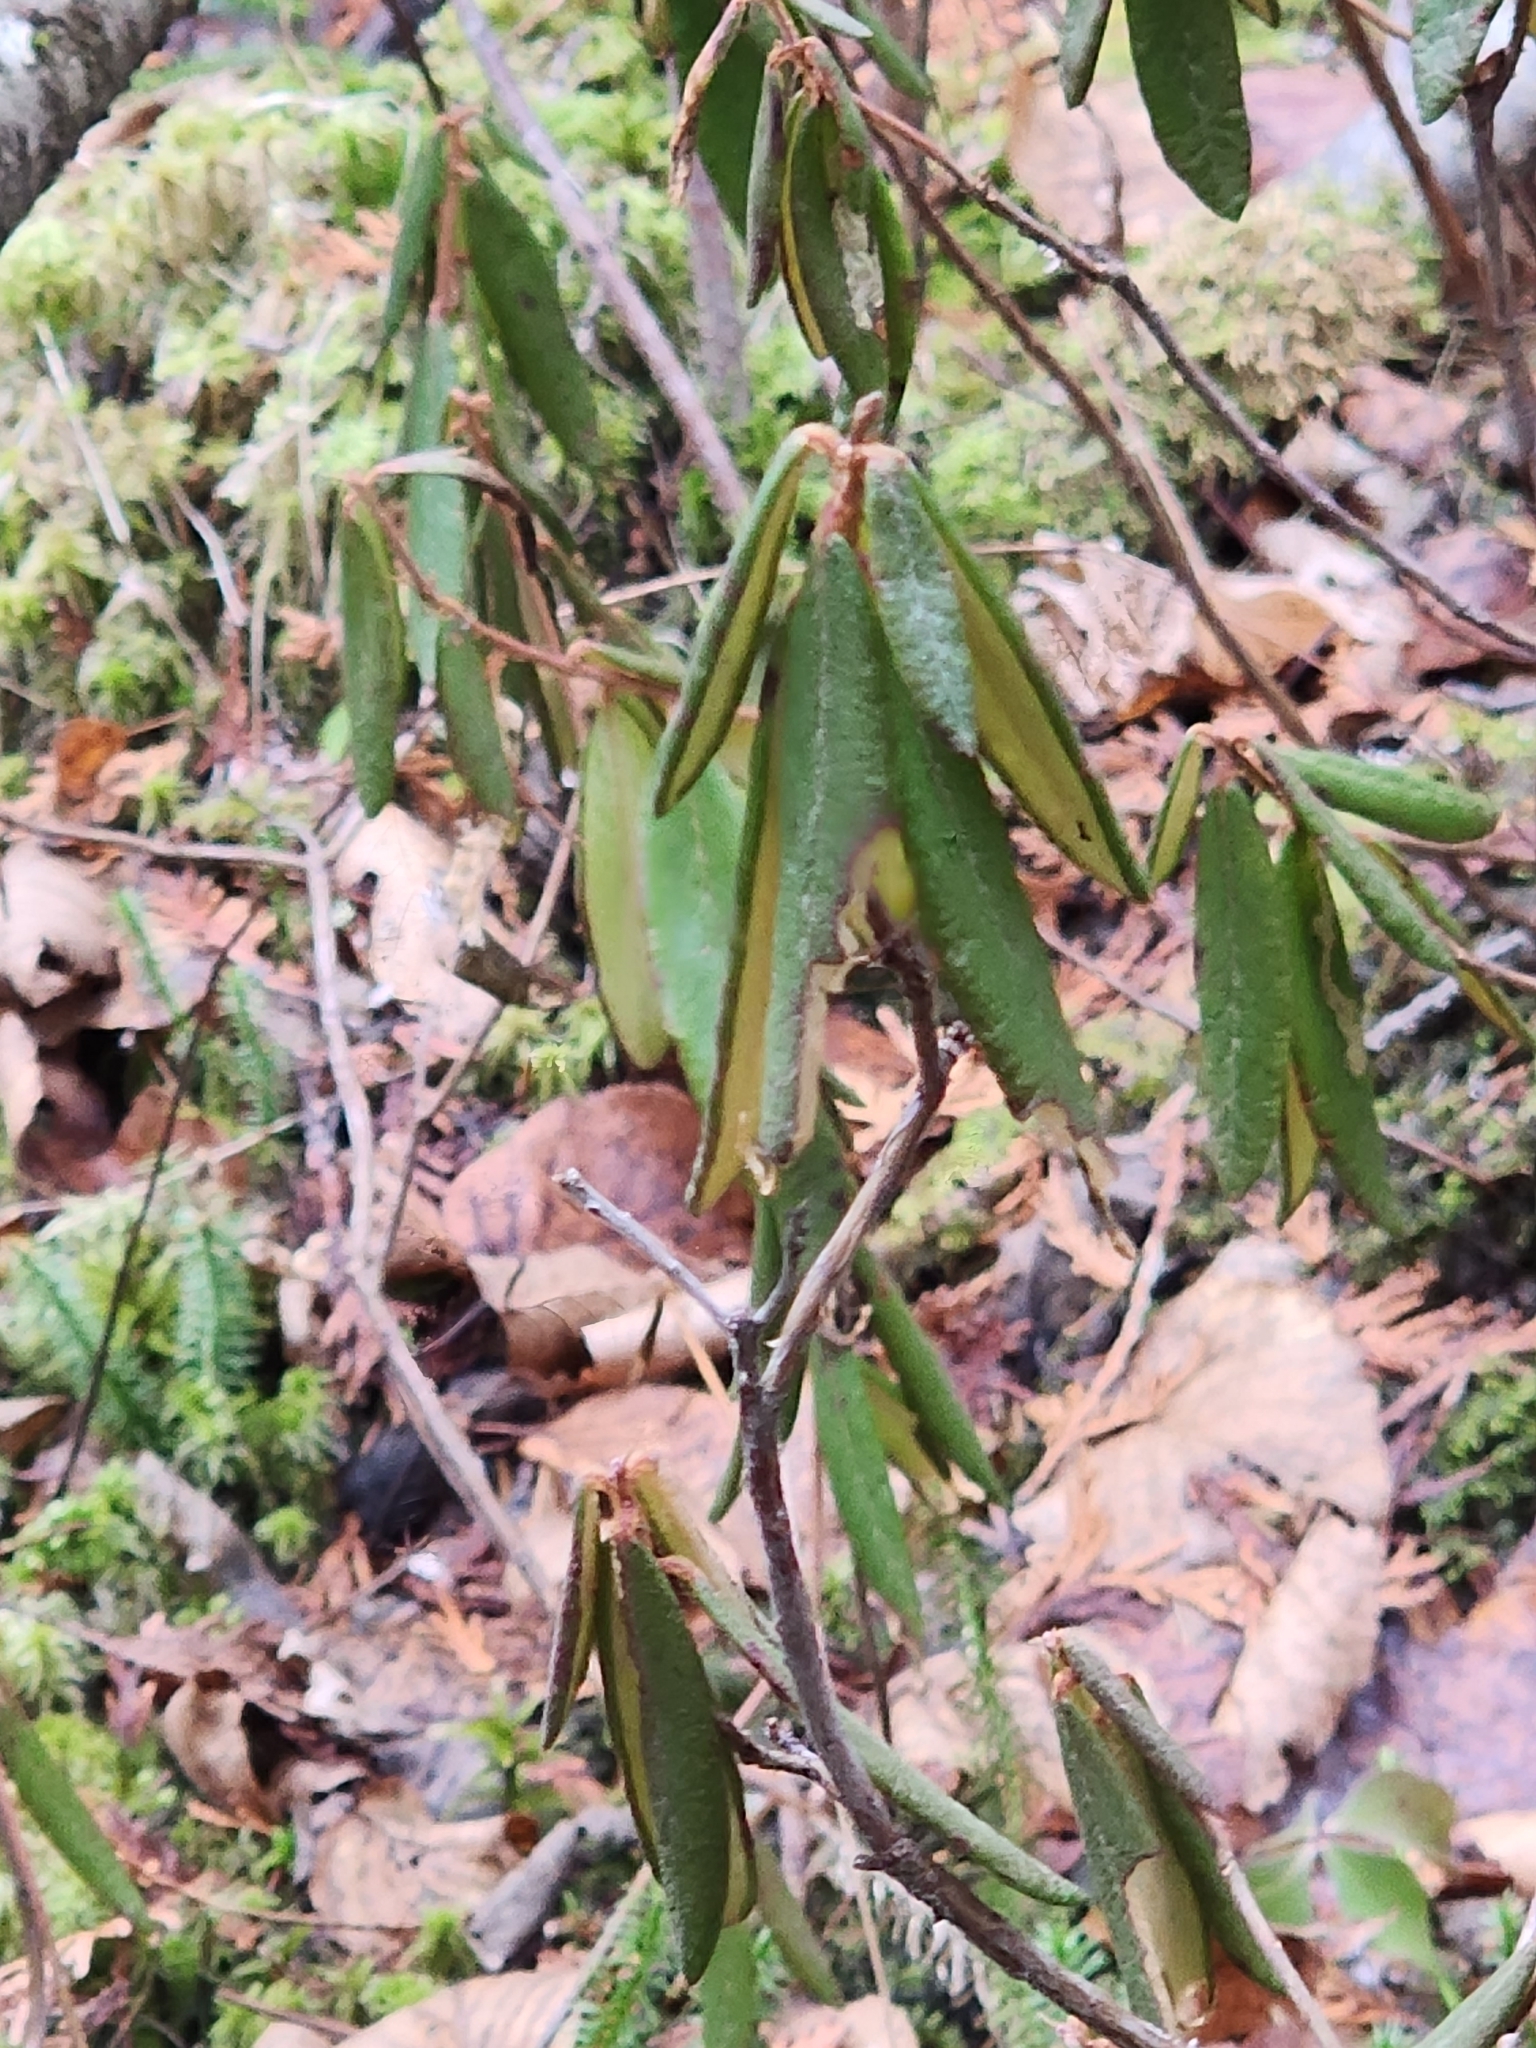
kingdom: Plantae
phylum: Tracheophyta
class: Magnoliopsida
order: Ericales
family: Ericaceae
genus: Rhododendron
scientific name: Rhododendron groenlandicum
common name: Bog labrador tea
